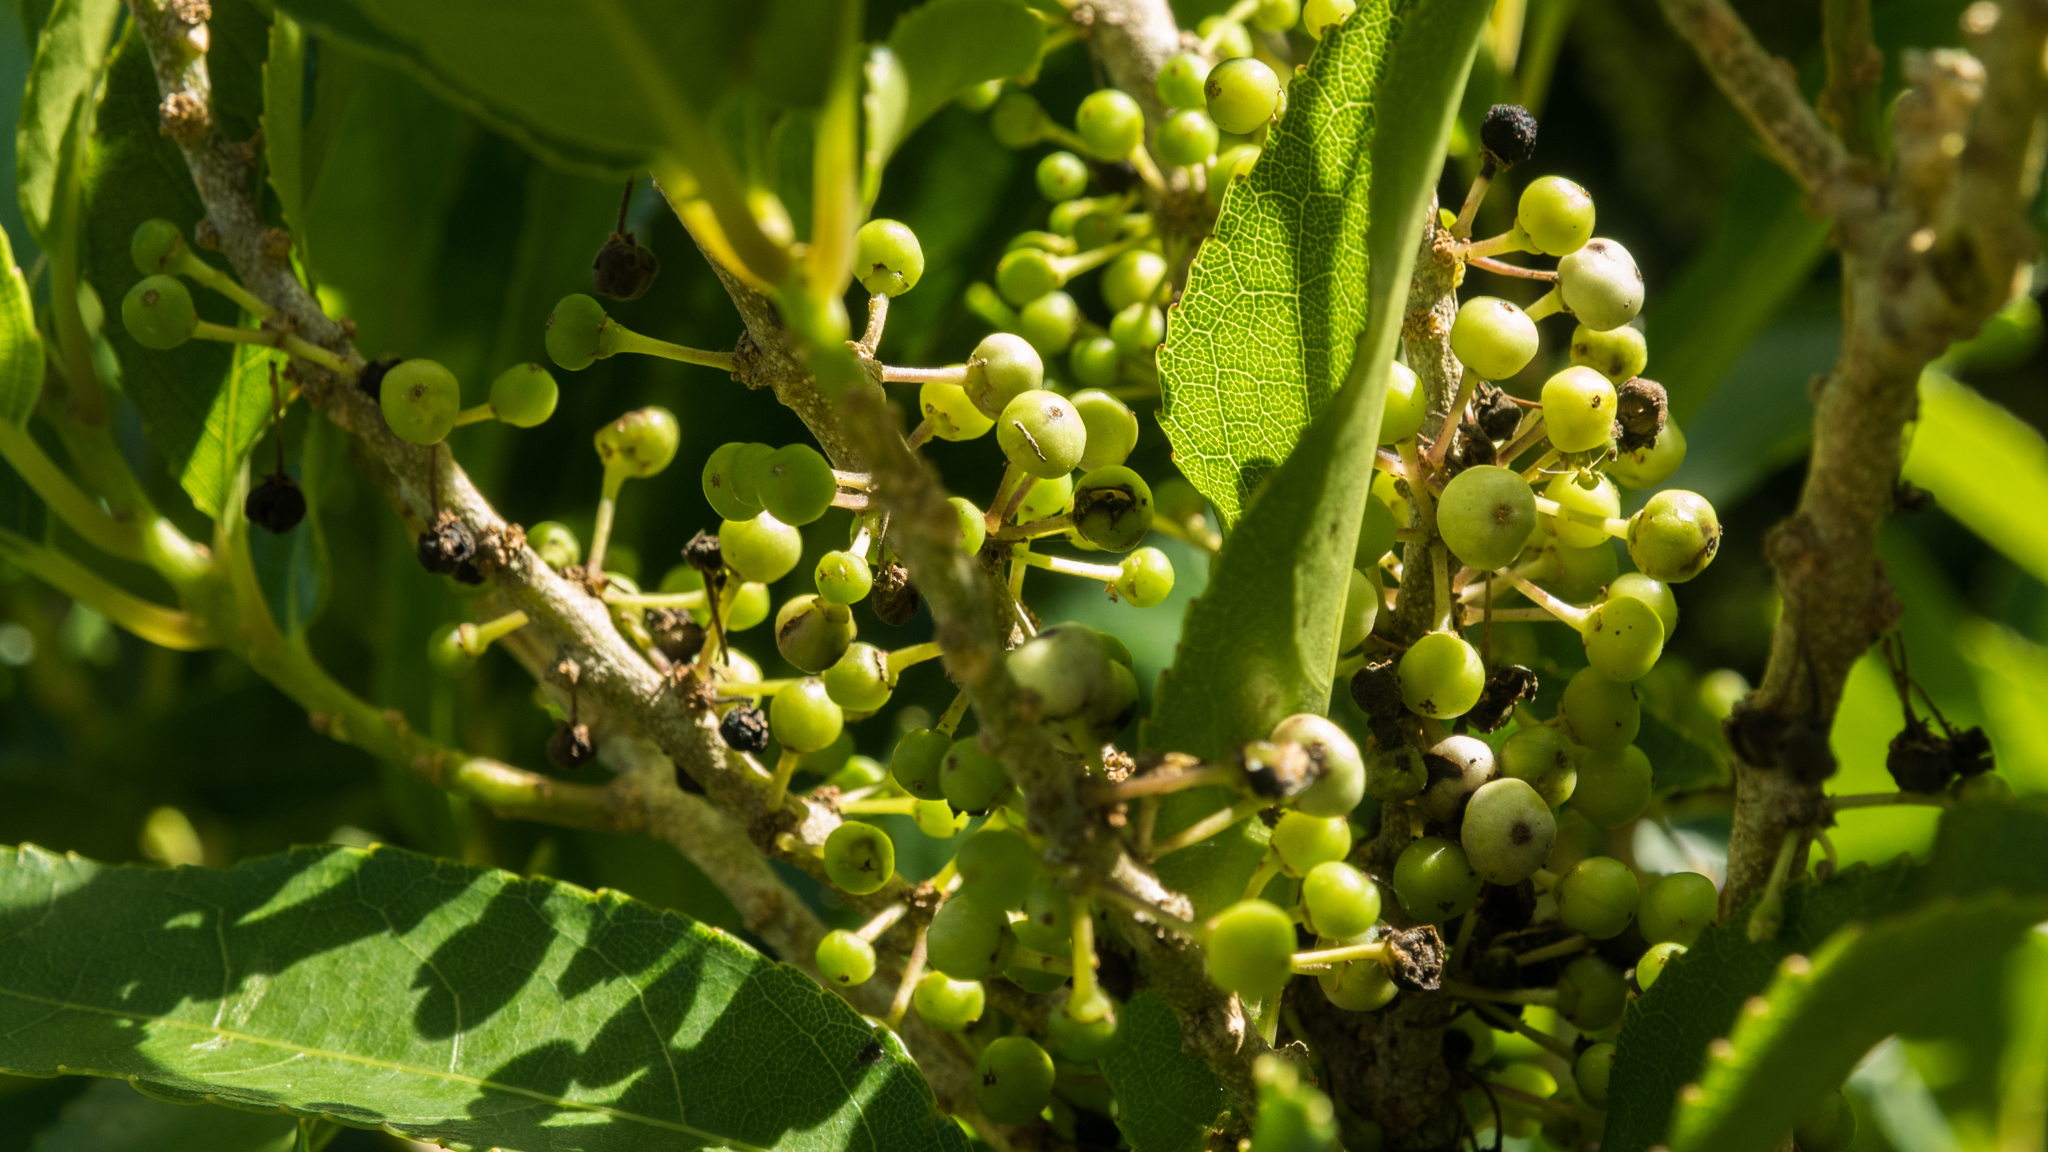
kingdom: Plantae
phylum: Tracheophyta
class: Magnoliopsida
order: Malpighiales
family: Violaceae
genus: Melicytus
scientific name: Melicytus ramiflorus
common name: Mahoe
